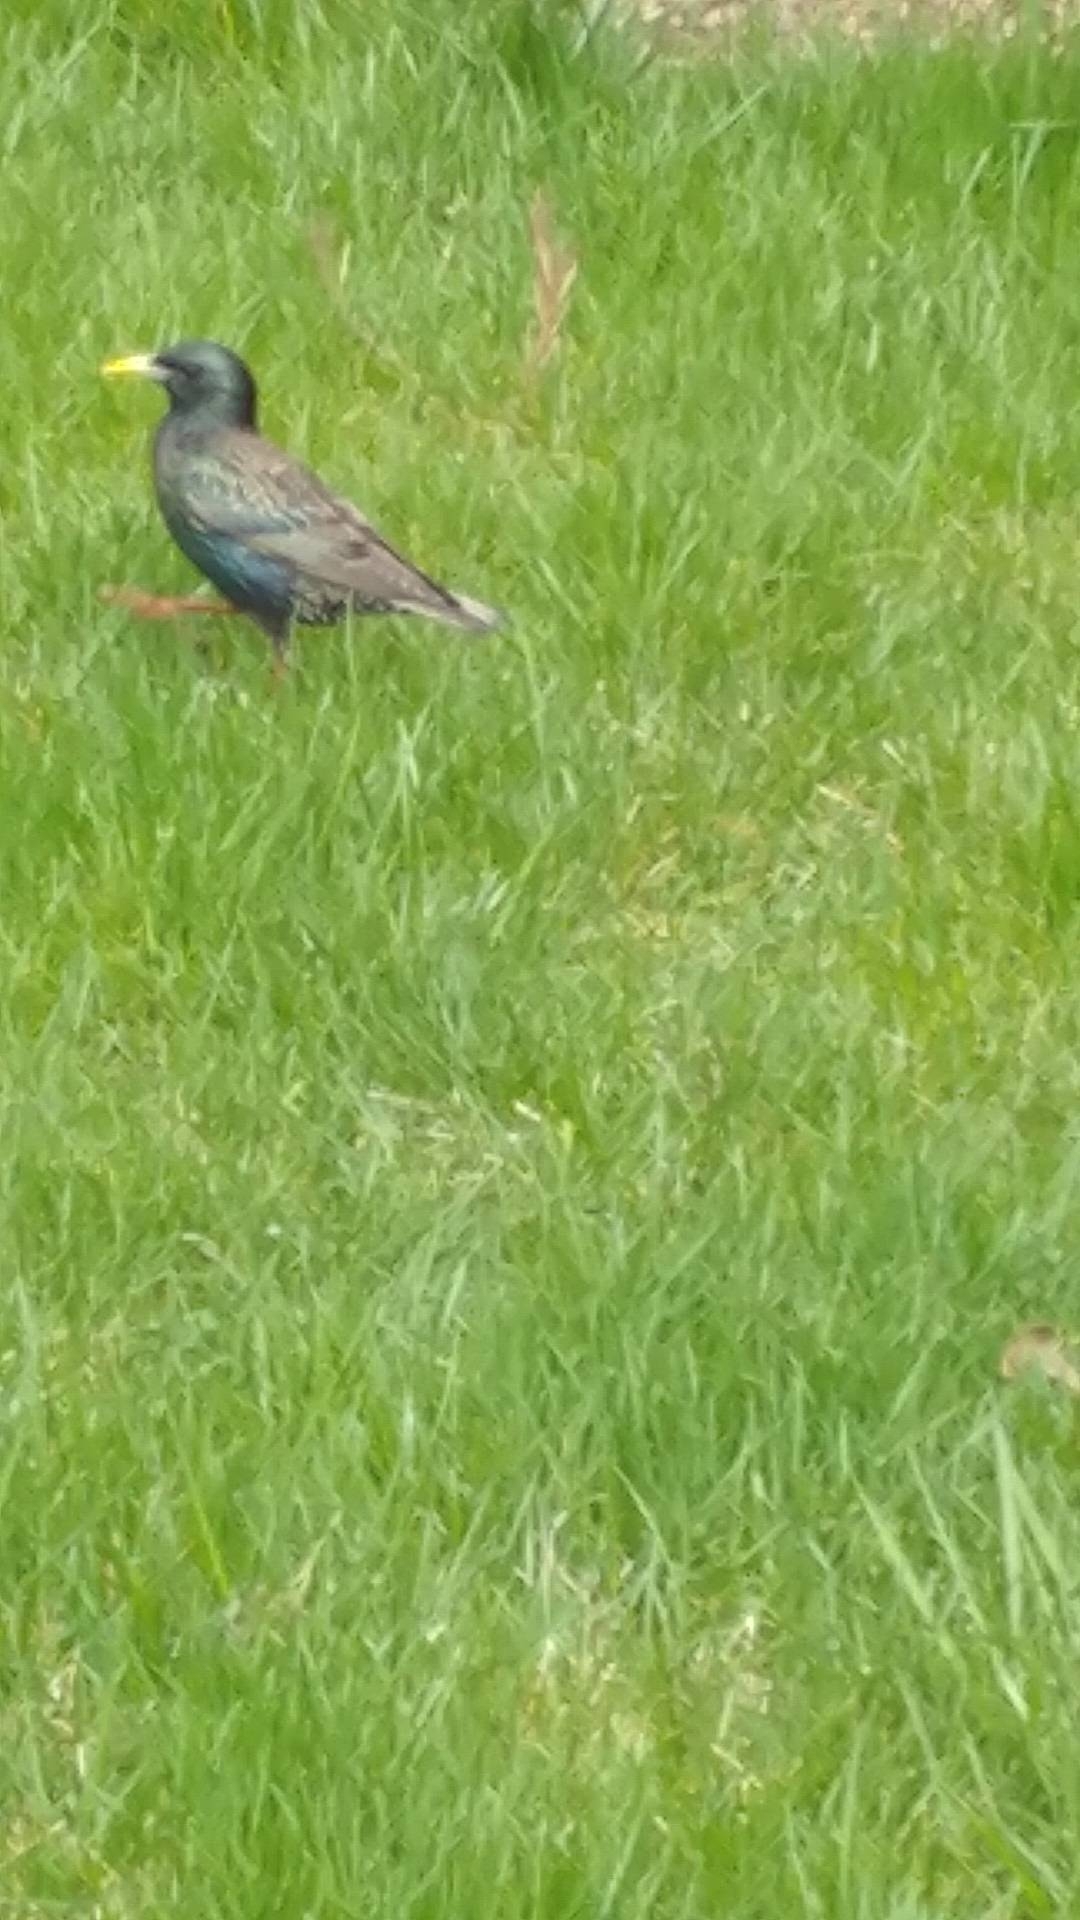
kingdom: Animalia
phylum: Chordata
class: Aves
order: Passeriformes
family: Sturnidae
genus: Sturnus
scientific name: Sturnus vulgaris
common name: Common starling
